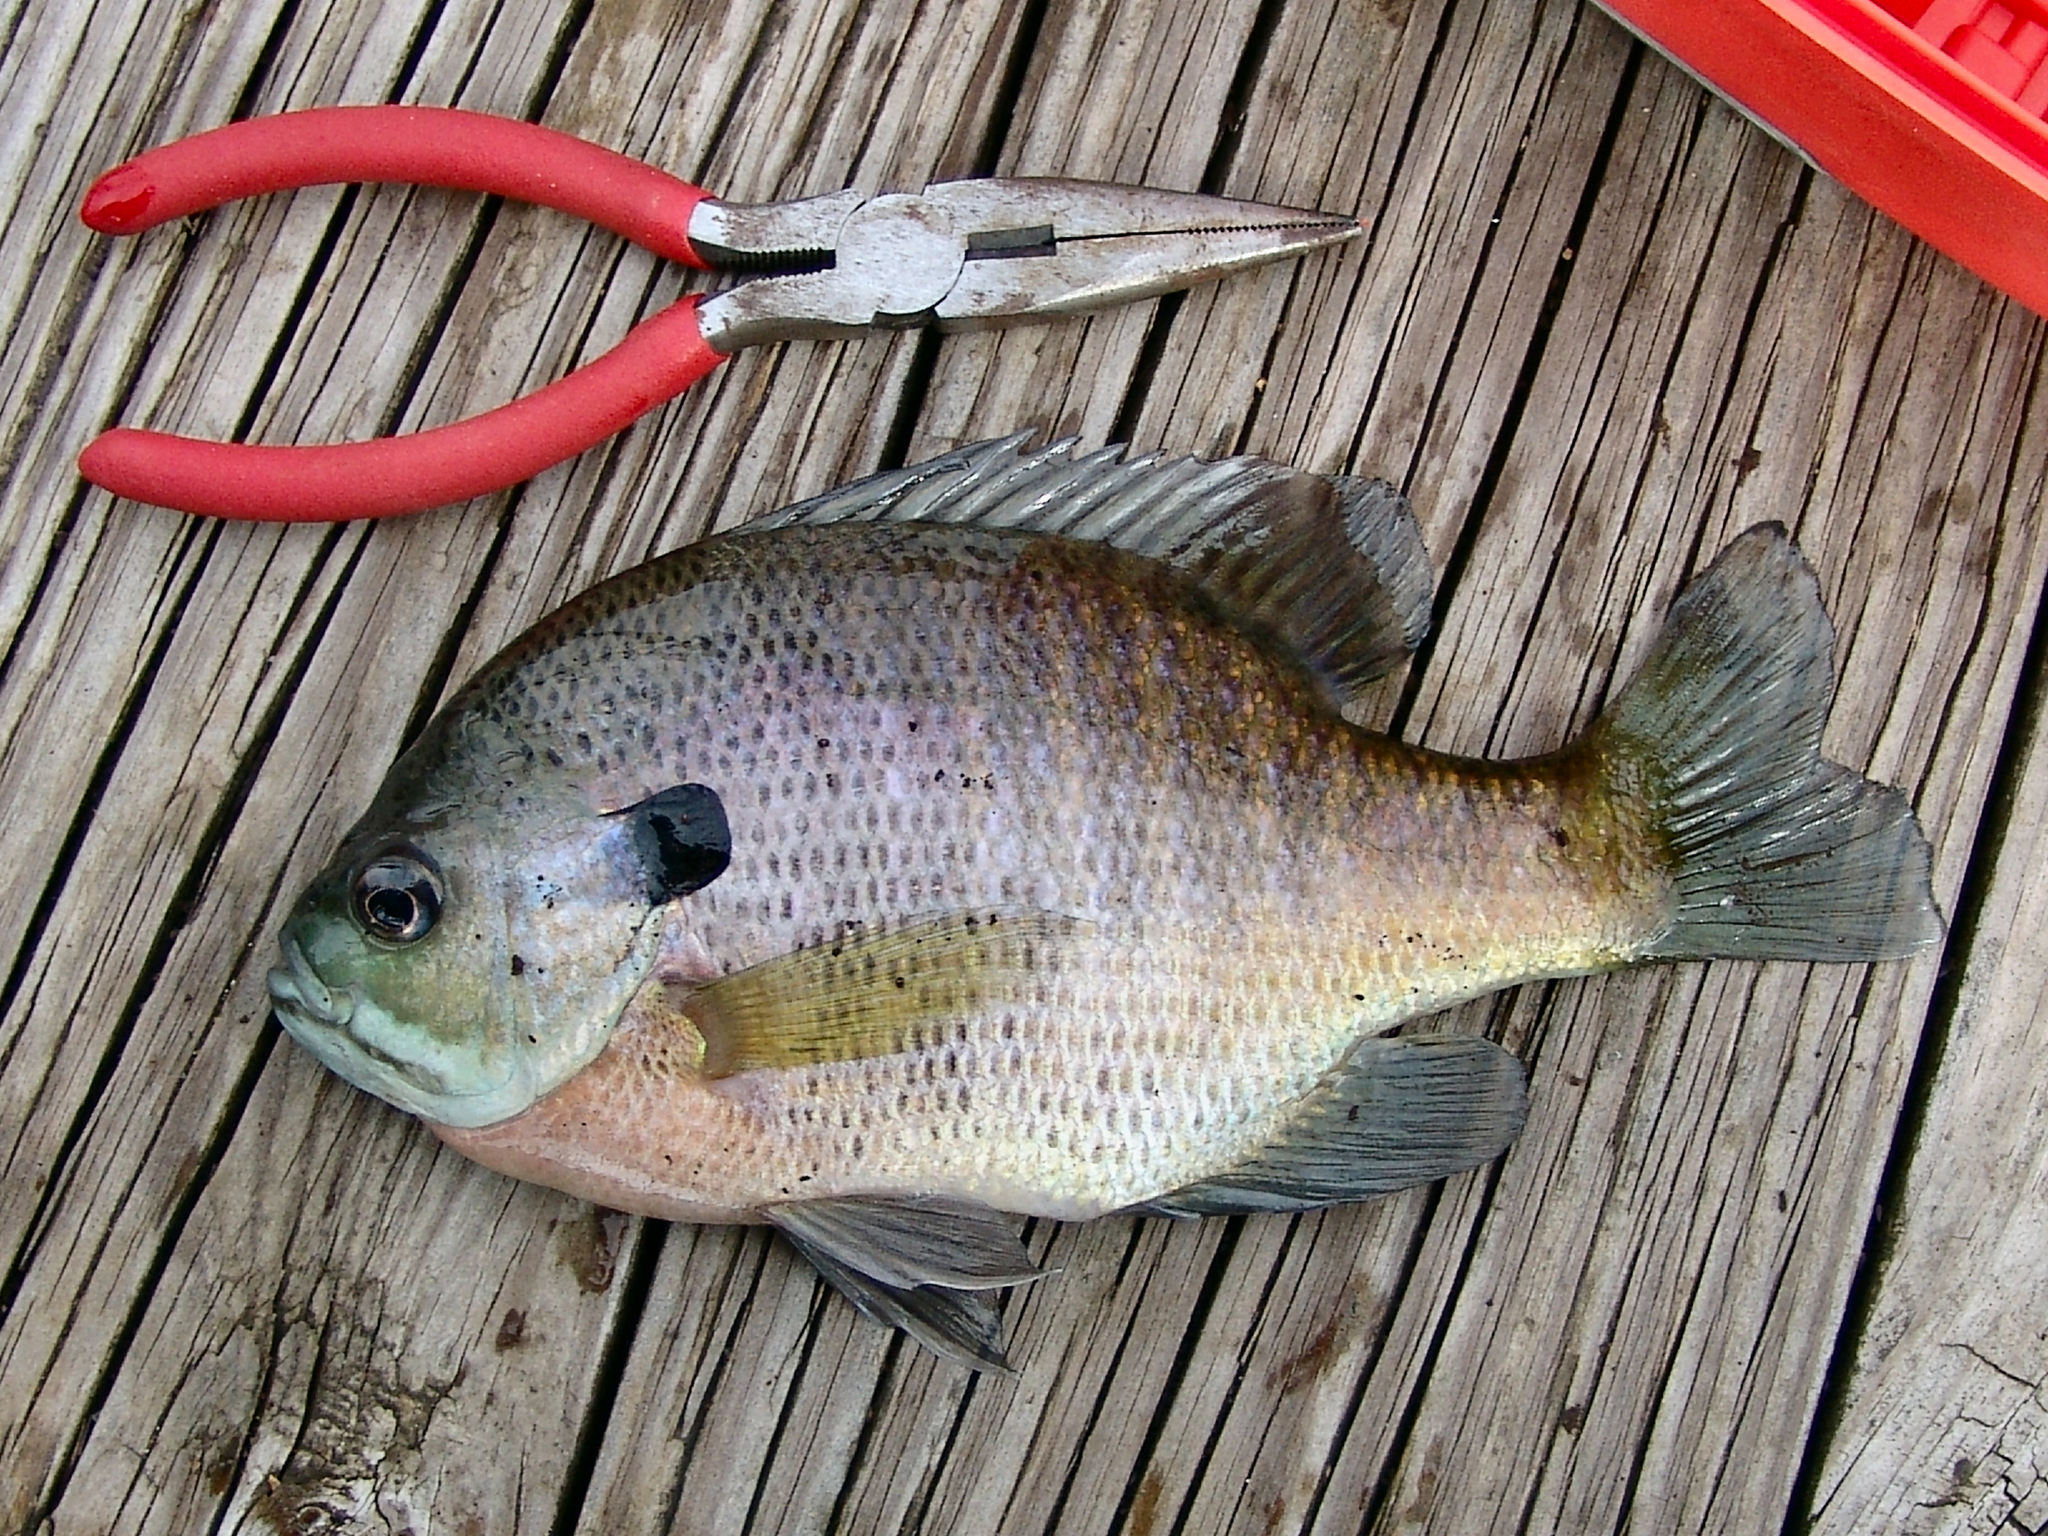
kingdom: Animalia
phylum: Chordata
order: Perciformes
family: Centrarchidae
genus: Lepomis
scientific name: Lepomis macrochirus
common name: Bluegill
